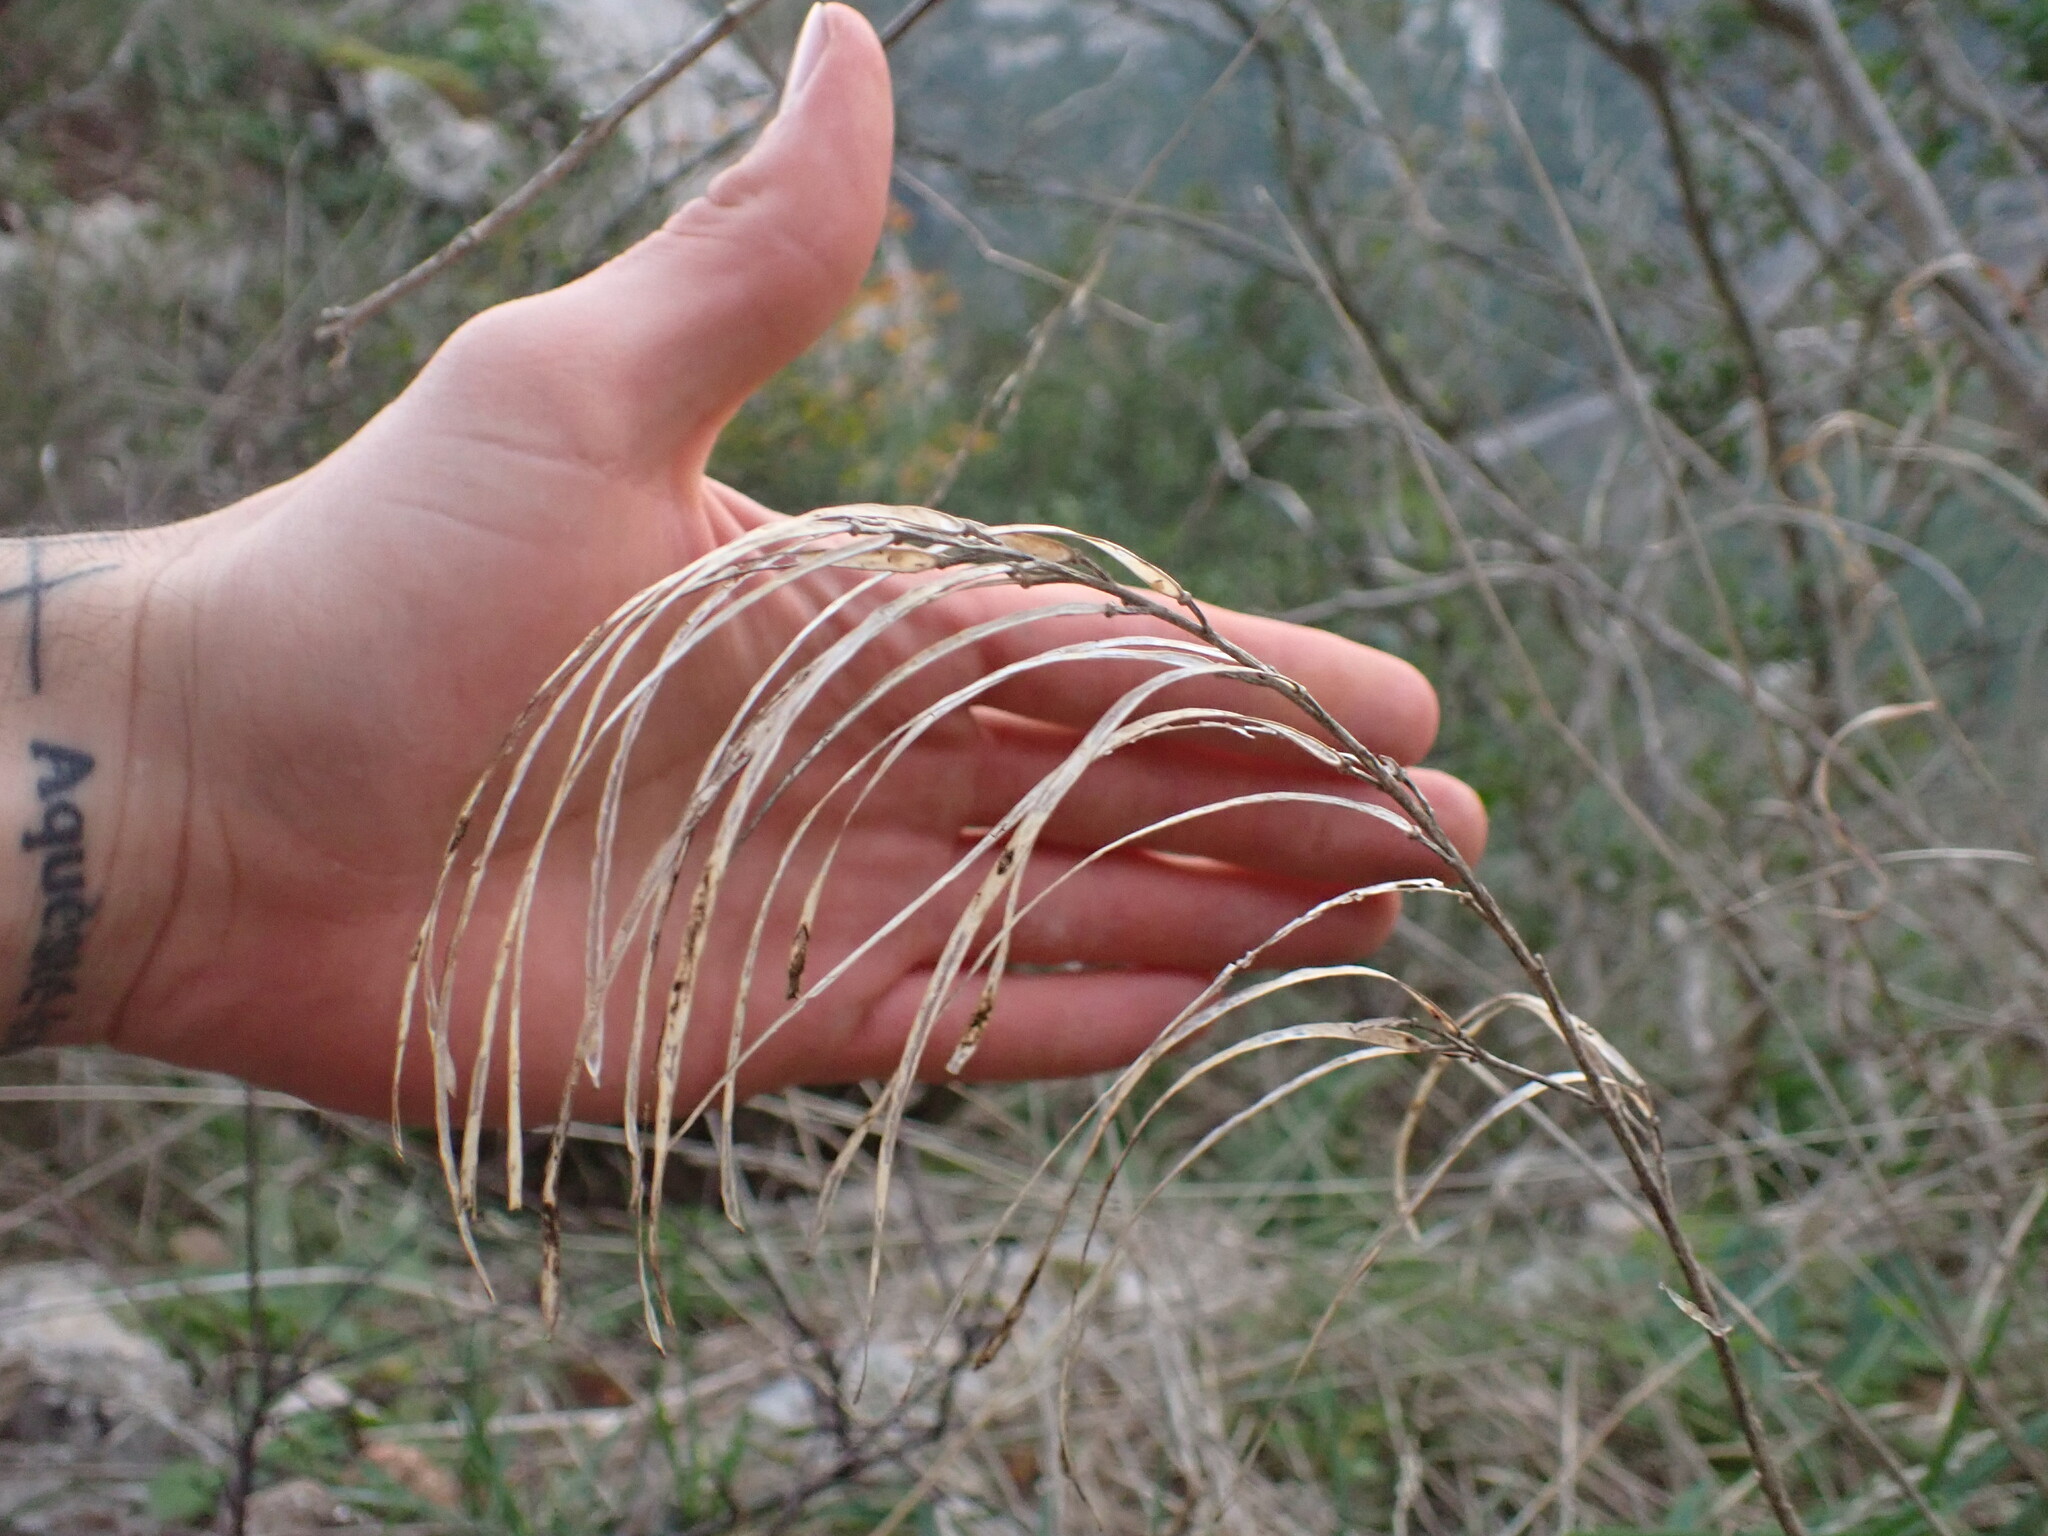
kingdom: Plantae
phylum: Tracheophyta
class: Magnoliopsida
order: Brassicales
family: Brassicaceae
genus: Pseudoturritis
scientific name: Pseudoturritis turrita
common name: Tower cress
